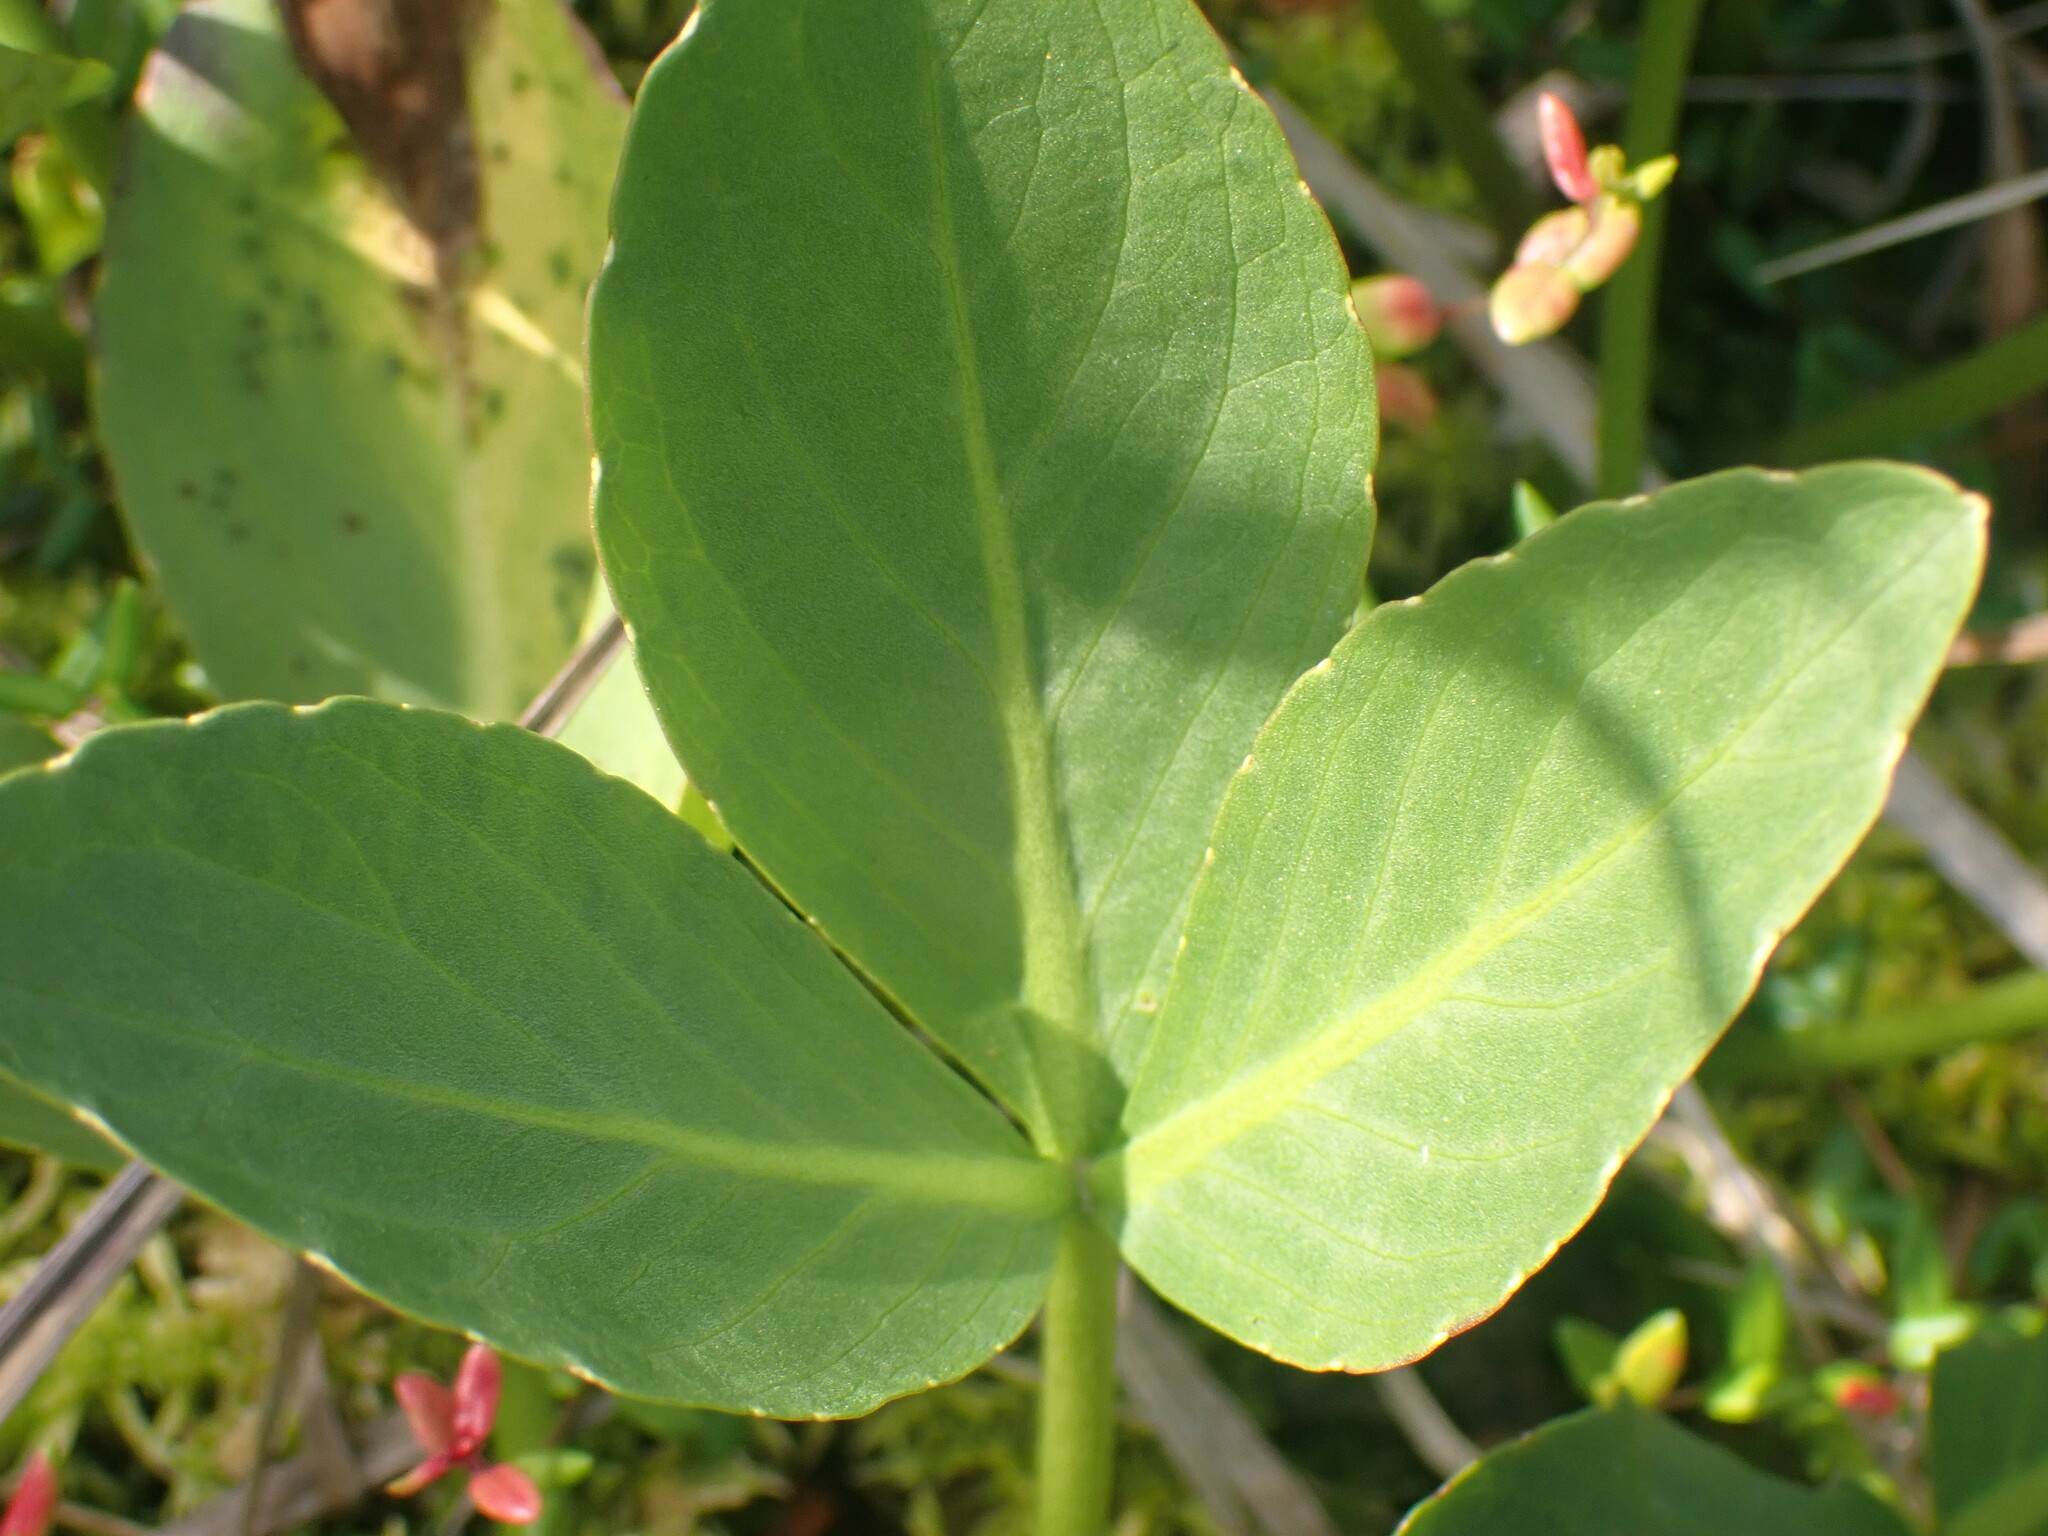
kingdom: Plantae
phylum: Tracheophyta
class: Magnoliopsida
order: Asterales
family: Menyanthaceae
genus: Menyanthes
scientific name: Menyanthes trifoliata
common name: Bogbean
